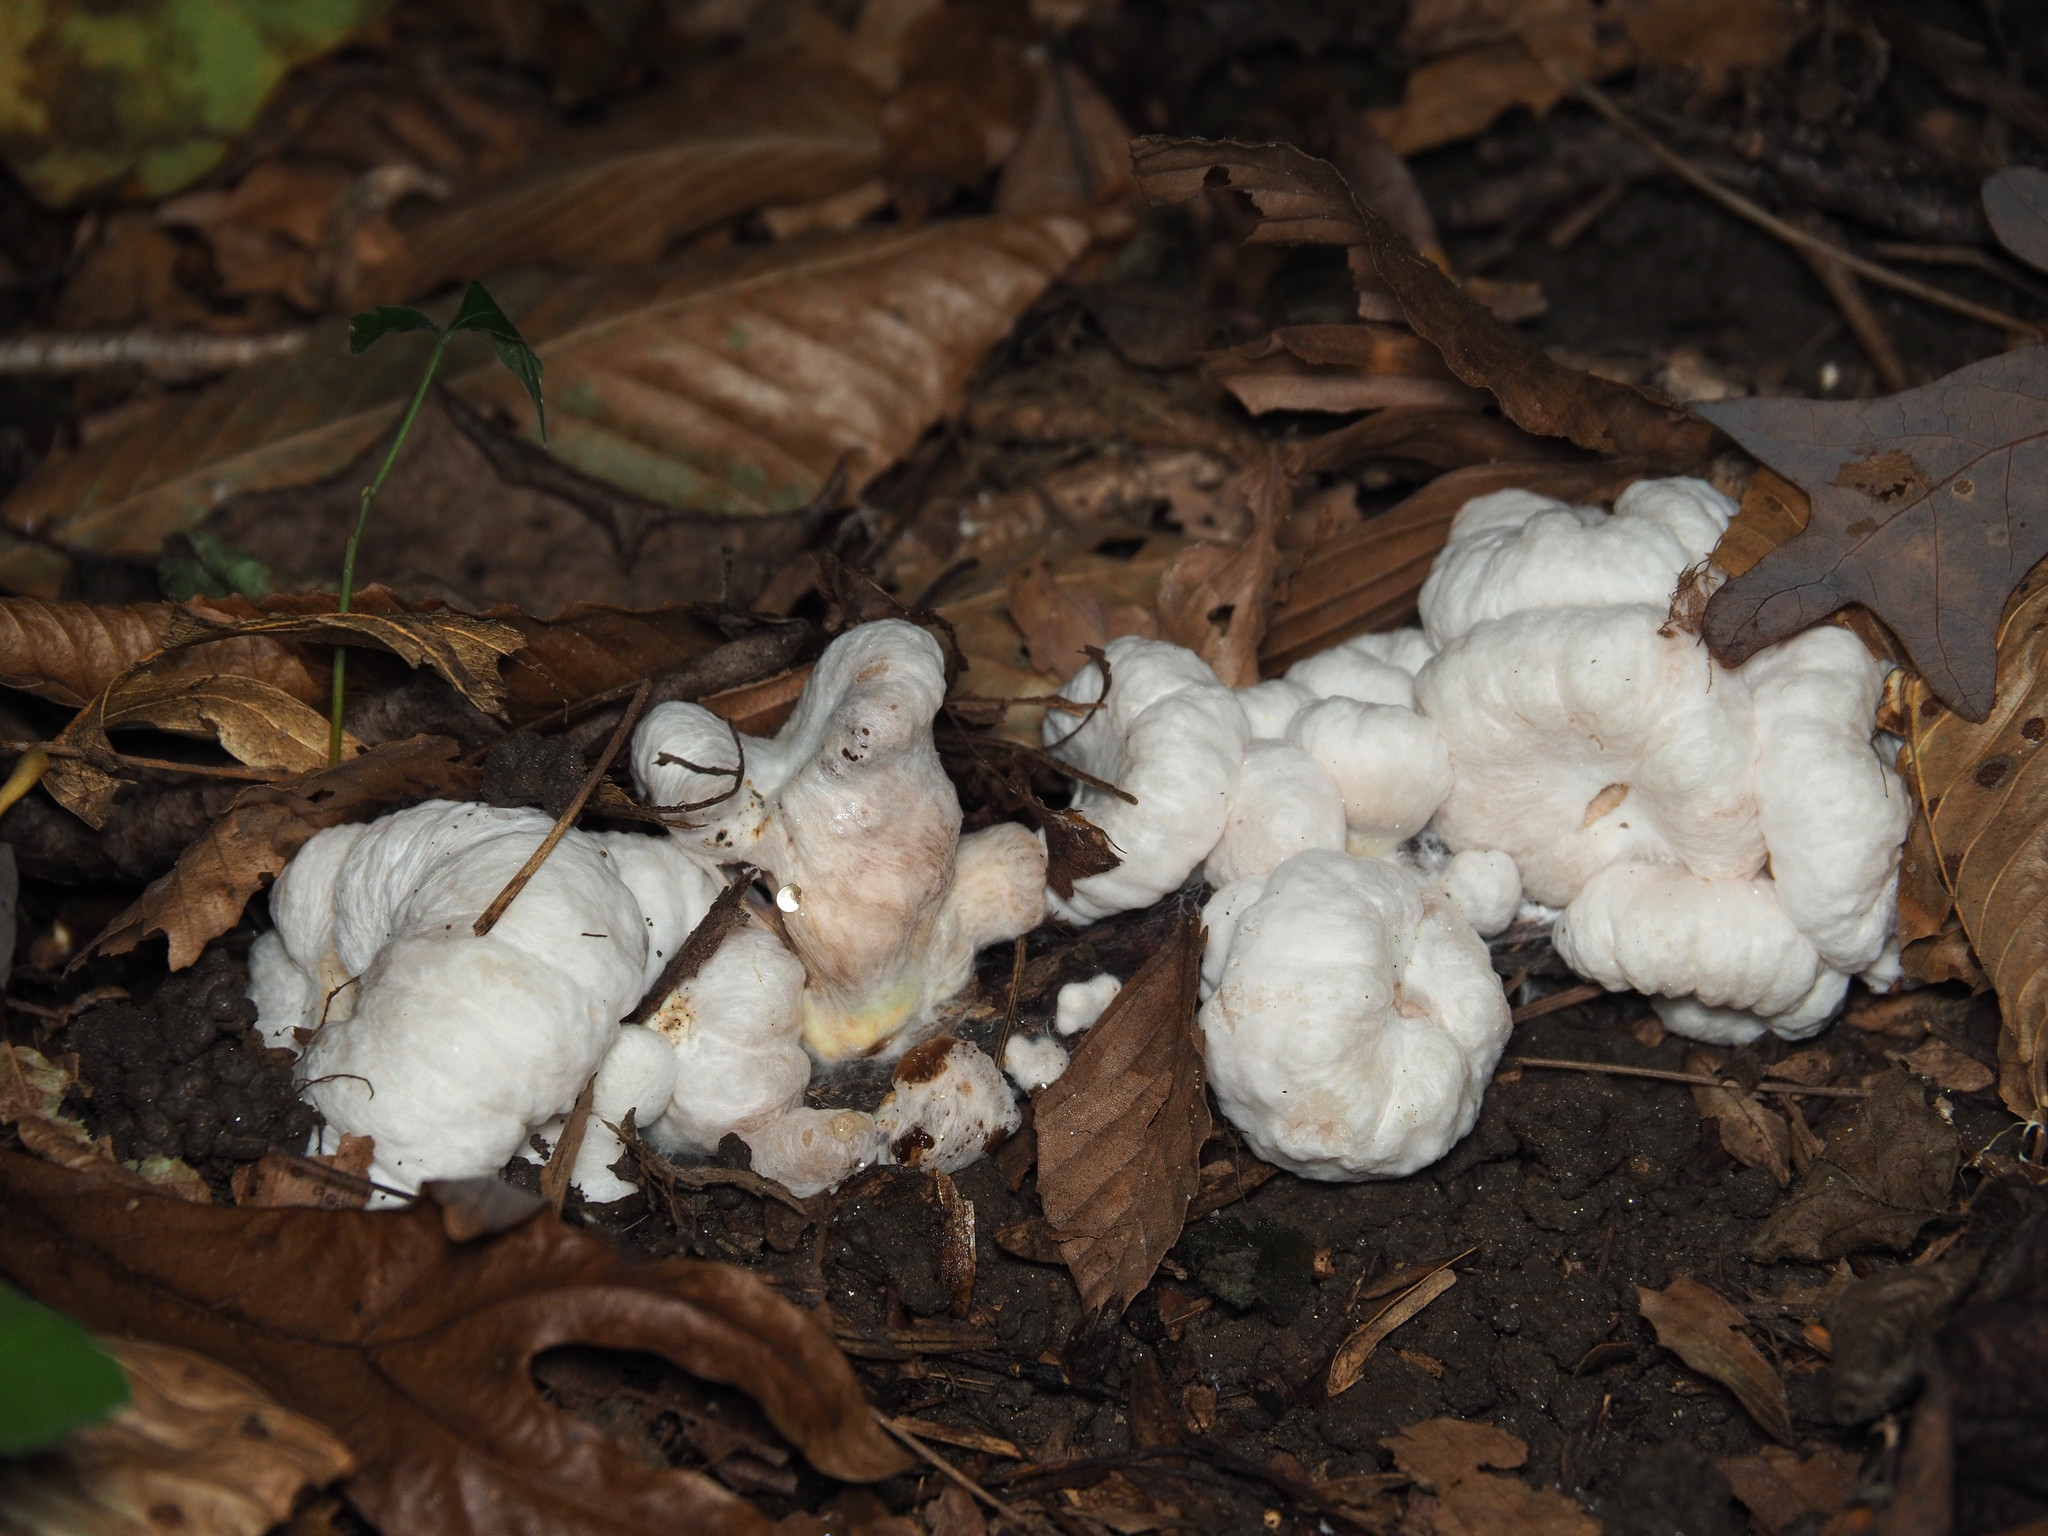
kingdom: Fungi
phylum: Basidiomycota
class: Agaricomycetes
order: Agaricales
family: Entolomataceae
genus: Entoloma
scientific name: Entoloma abortivum
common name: Aborted entoloma
